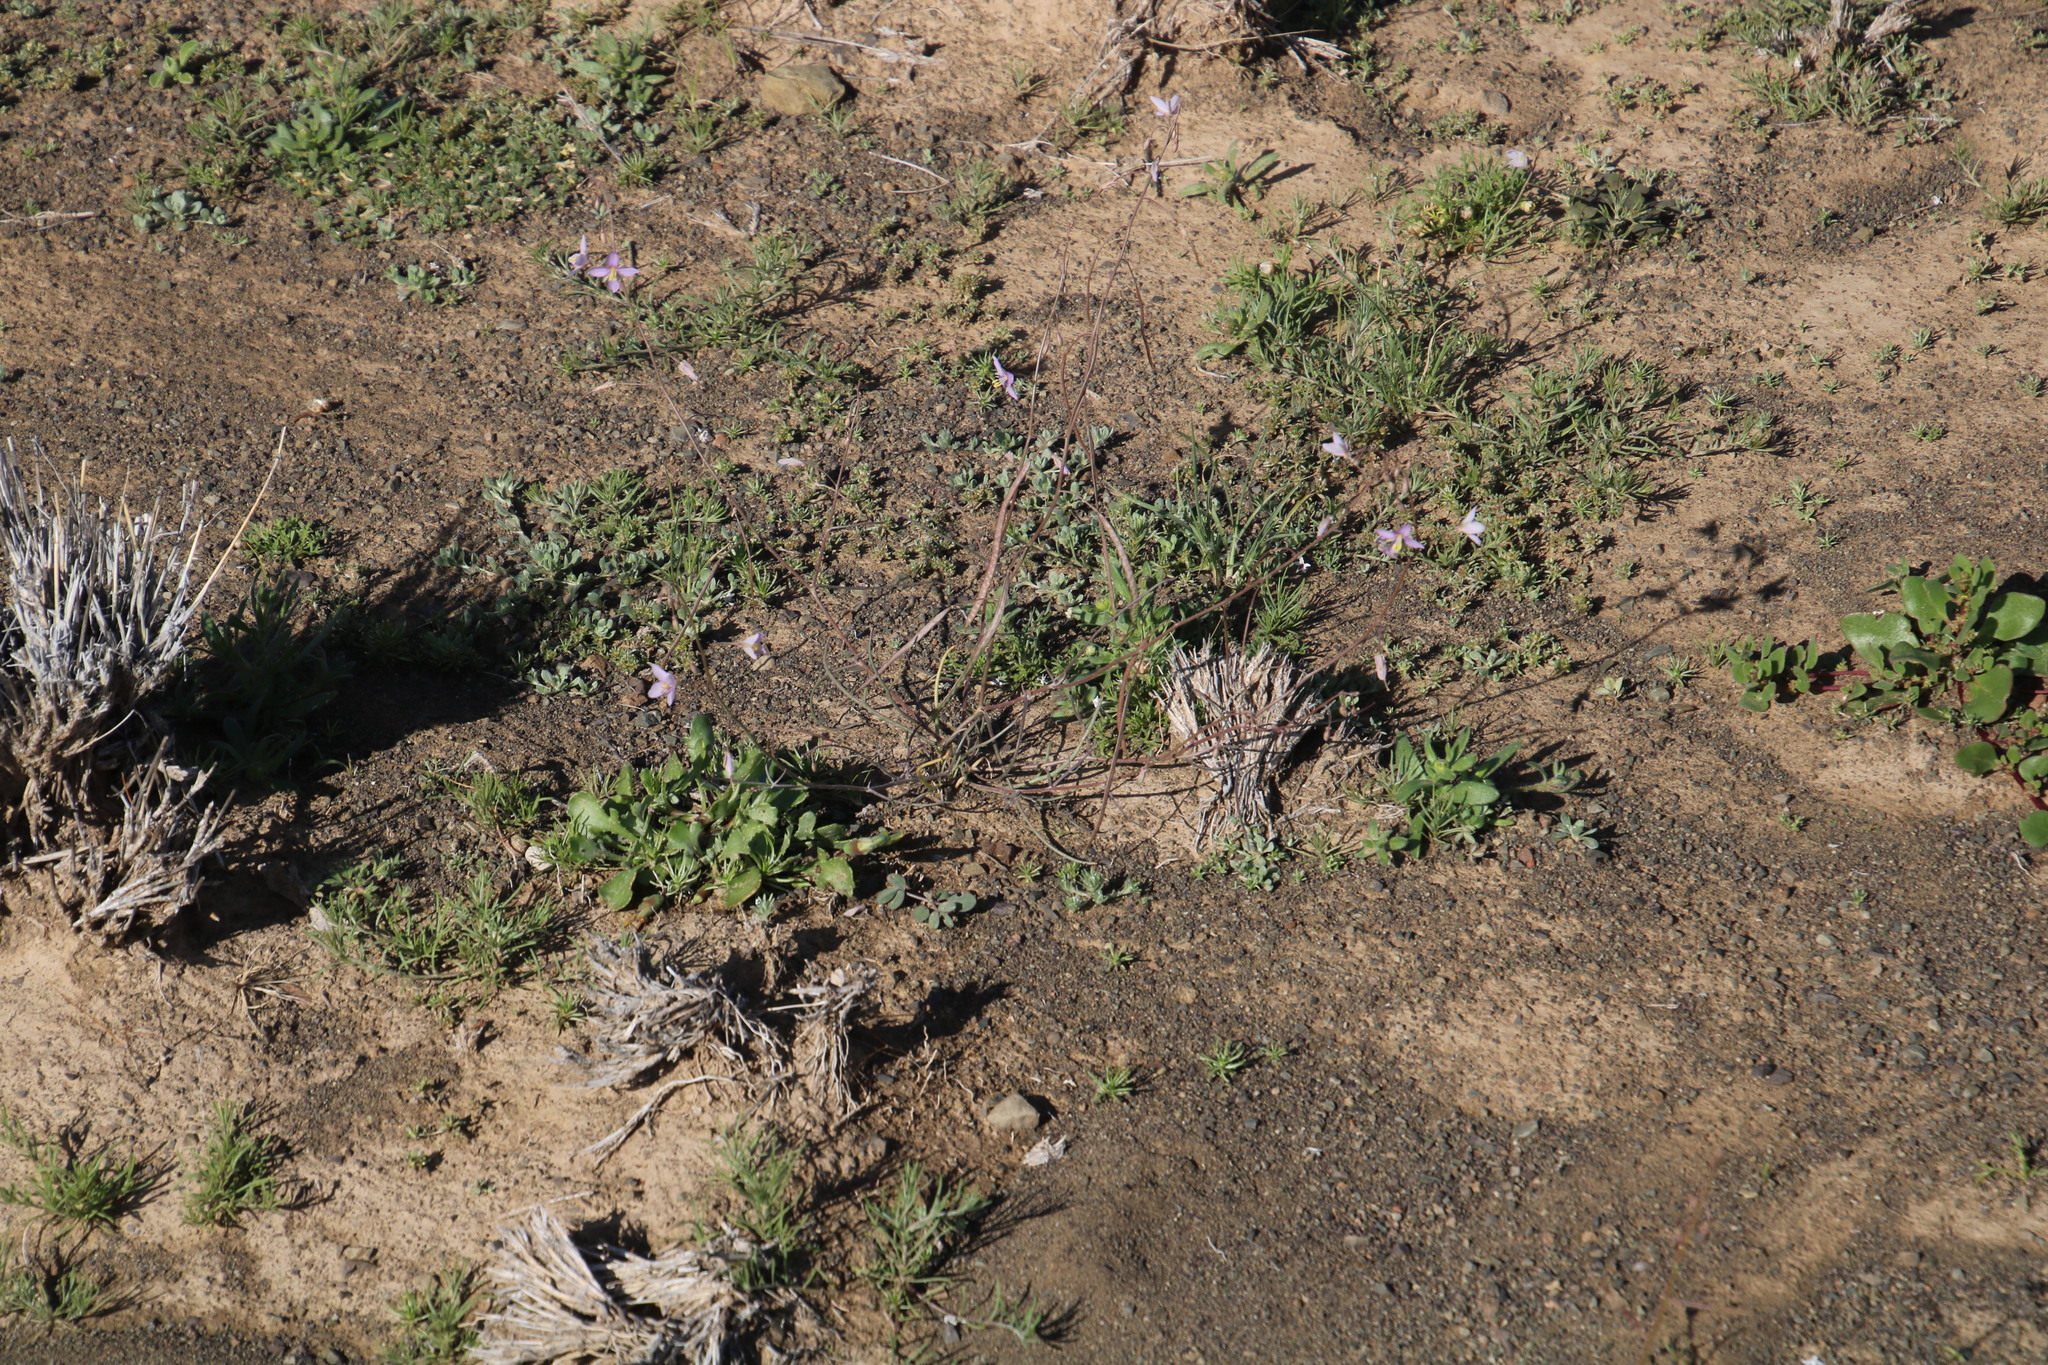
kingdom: Plantae
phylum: Tracheophyta
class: Magnoliopsida
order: Brassicales
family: Brassicaceae
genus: Heliophila
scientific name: Heliophila trifurca
